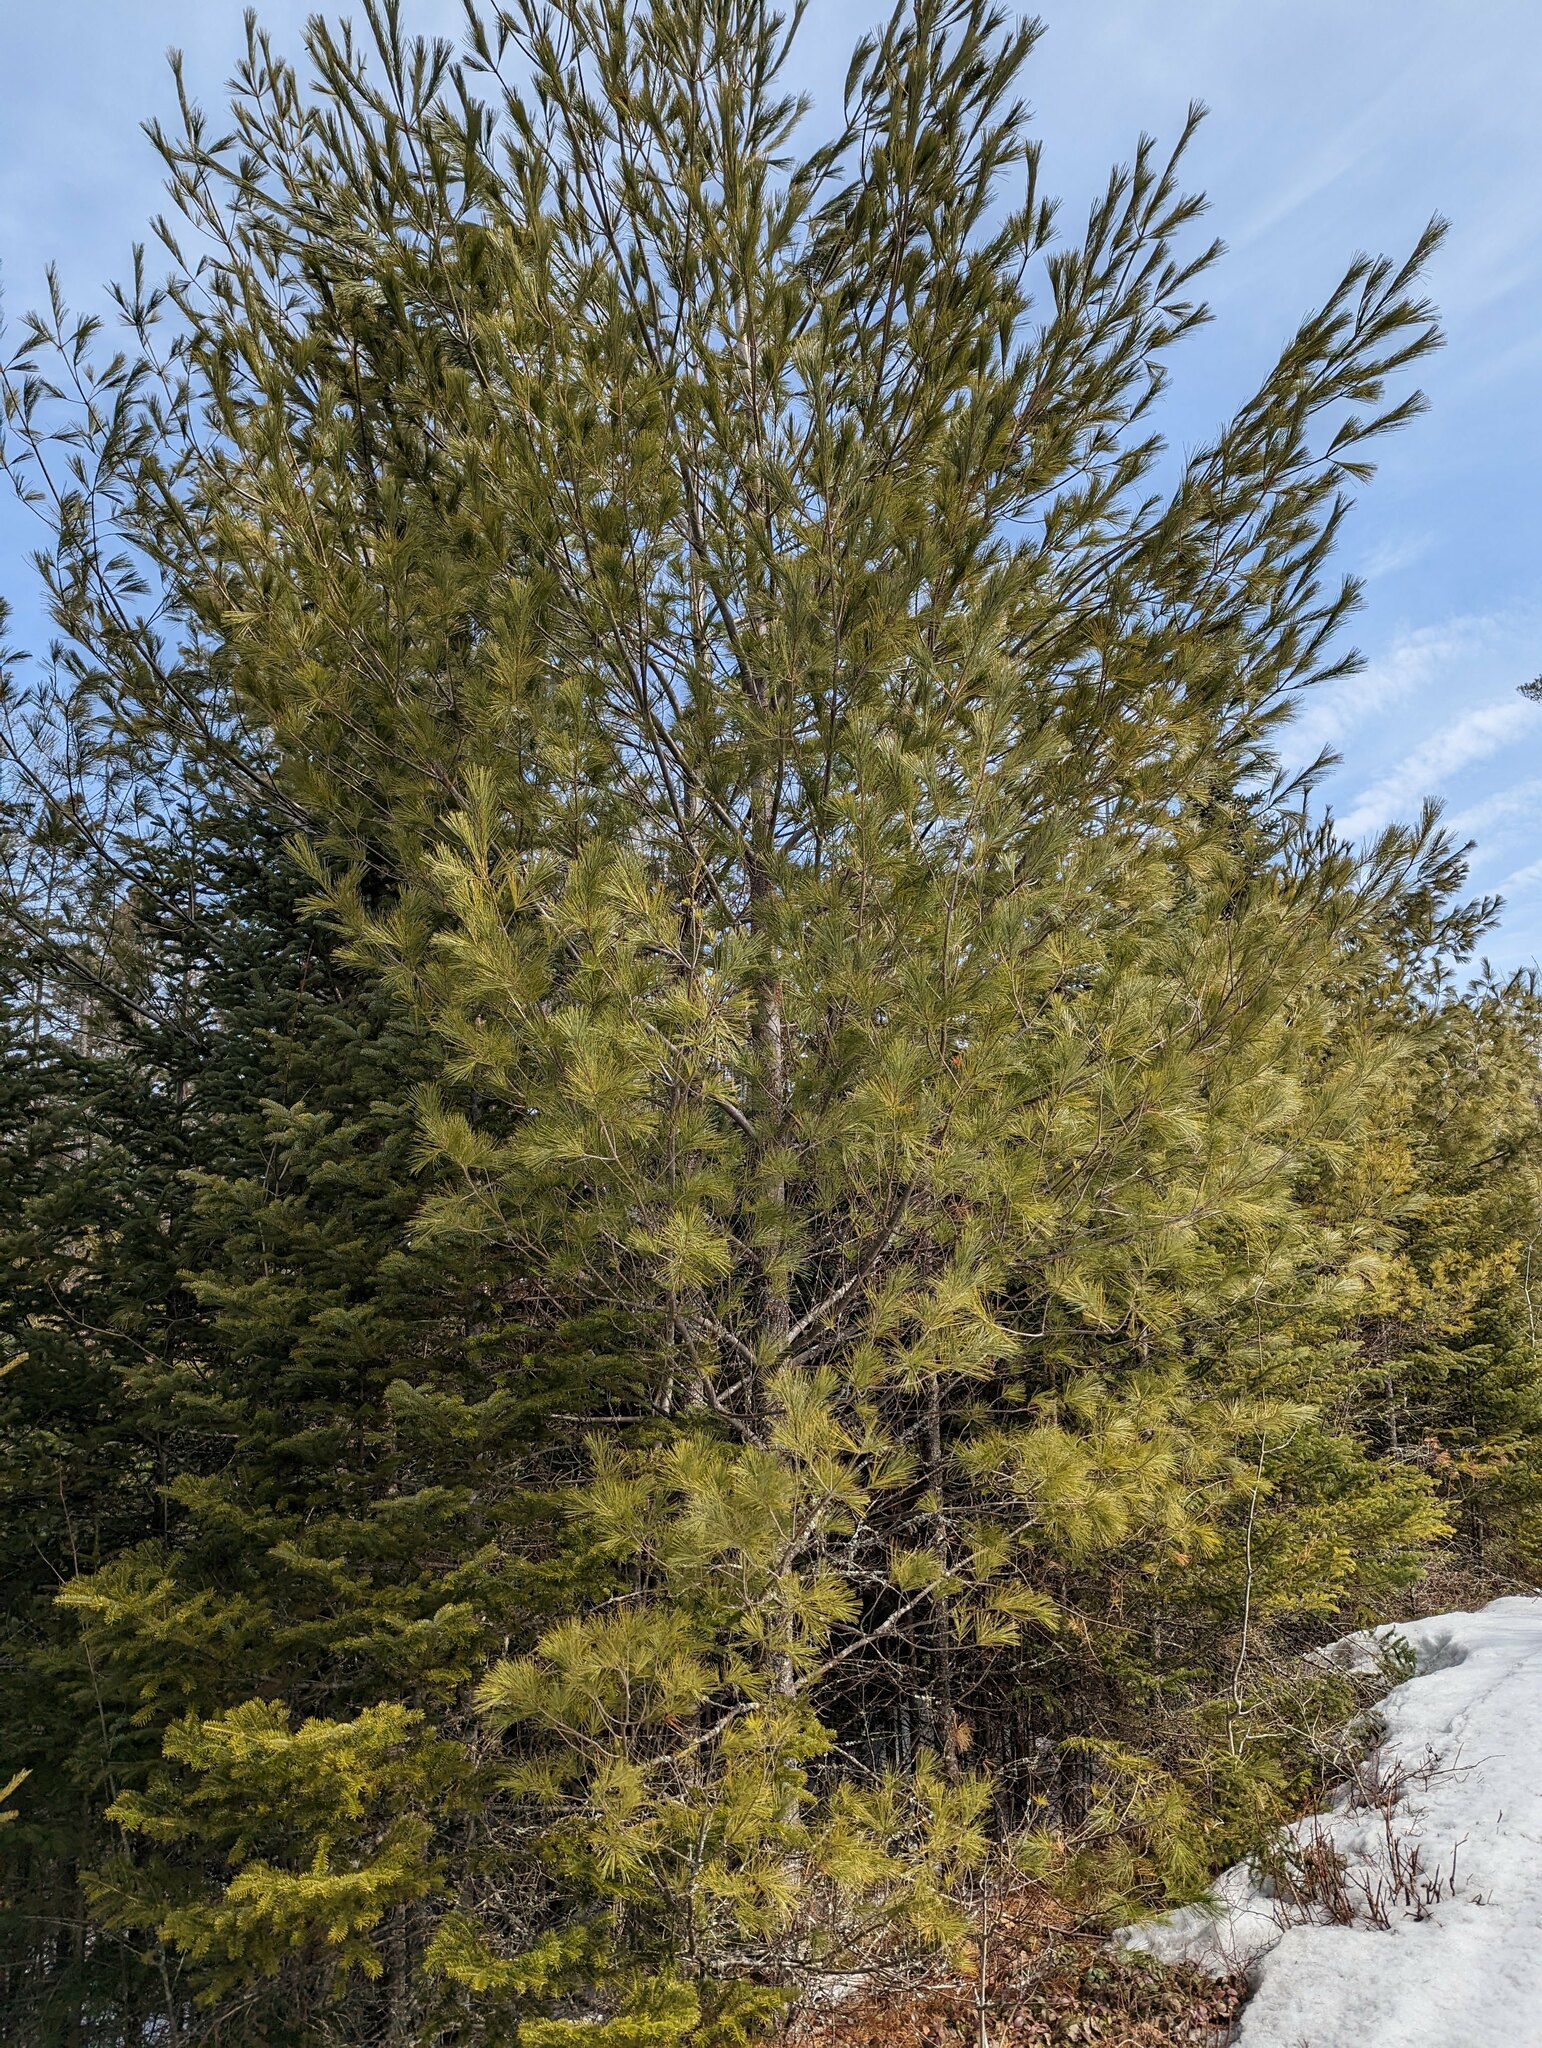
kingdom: Plantae
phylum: Tracheophyta
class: Pinopsida
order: Pinales
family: Pinaceae
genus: Pinus
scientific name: Pinus strobus
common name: Weymouth pine
